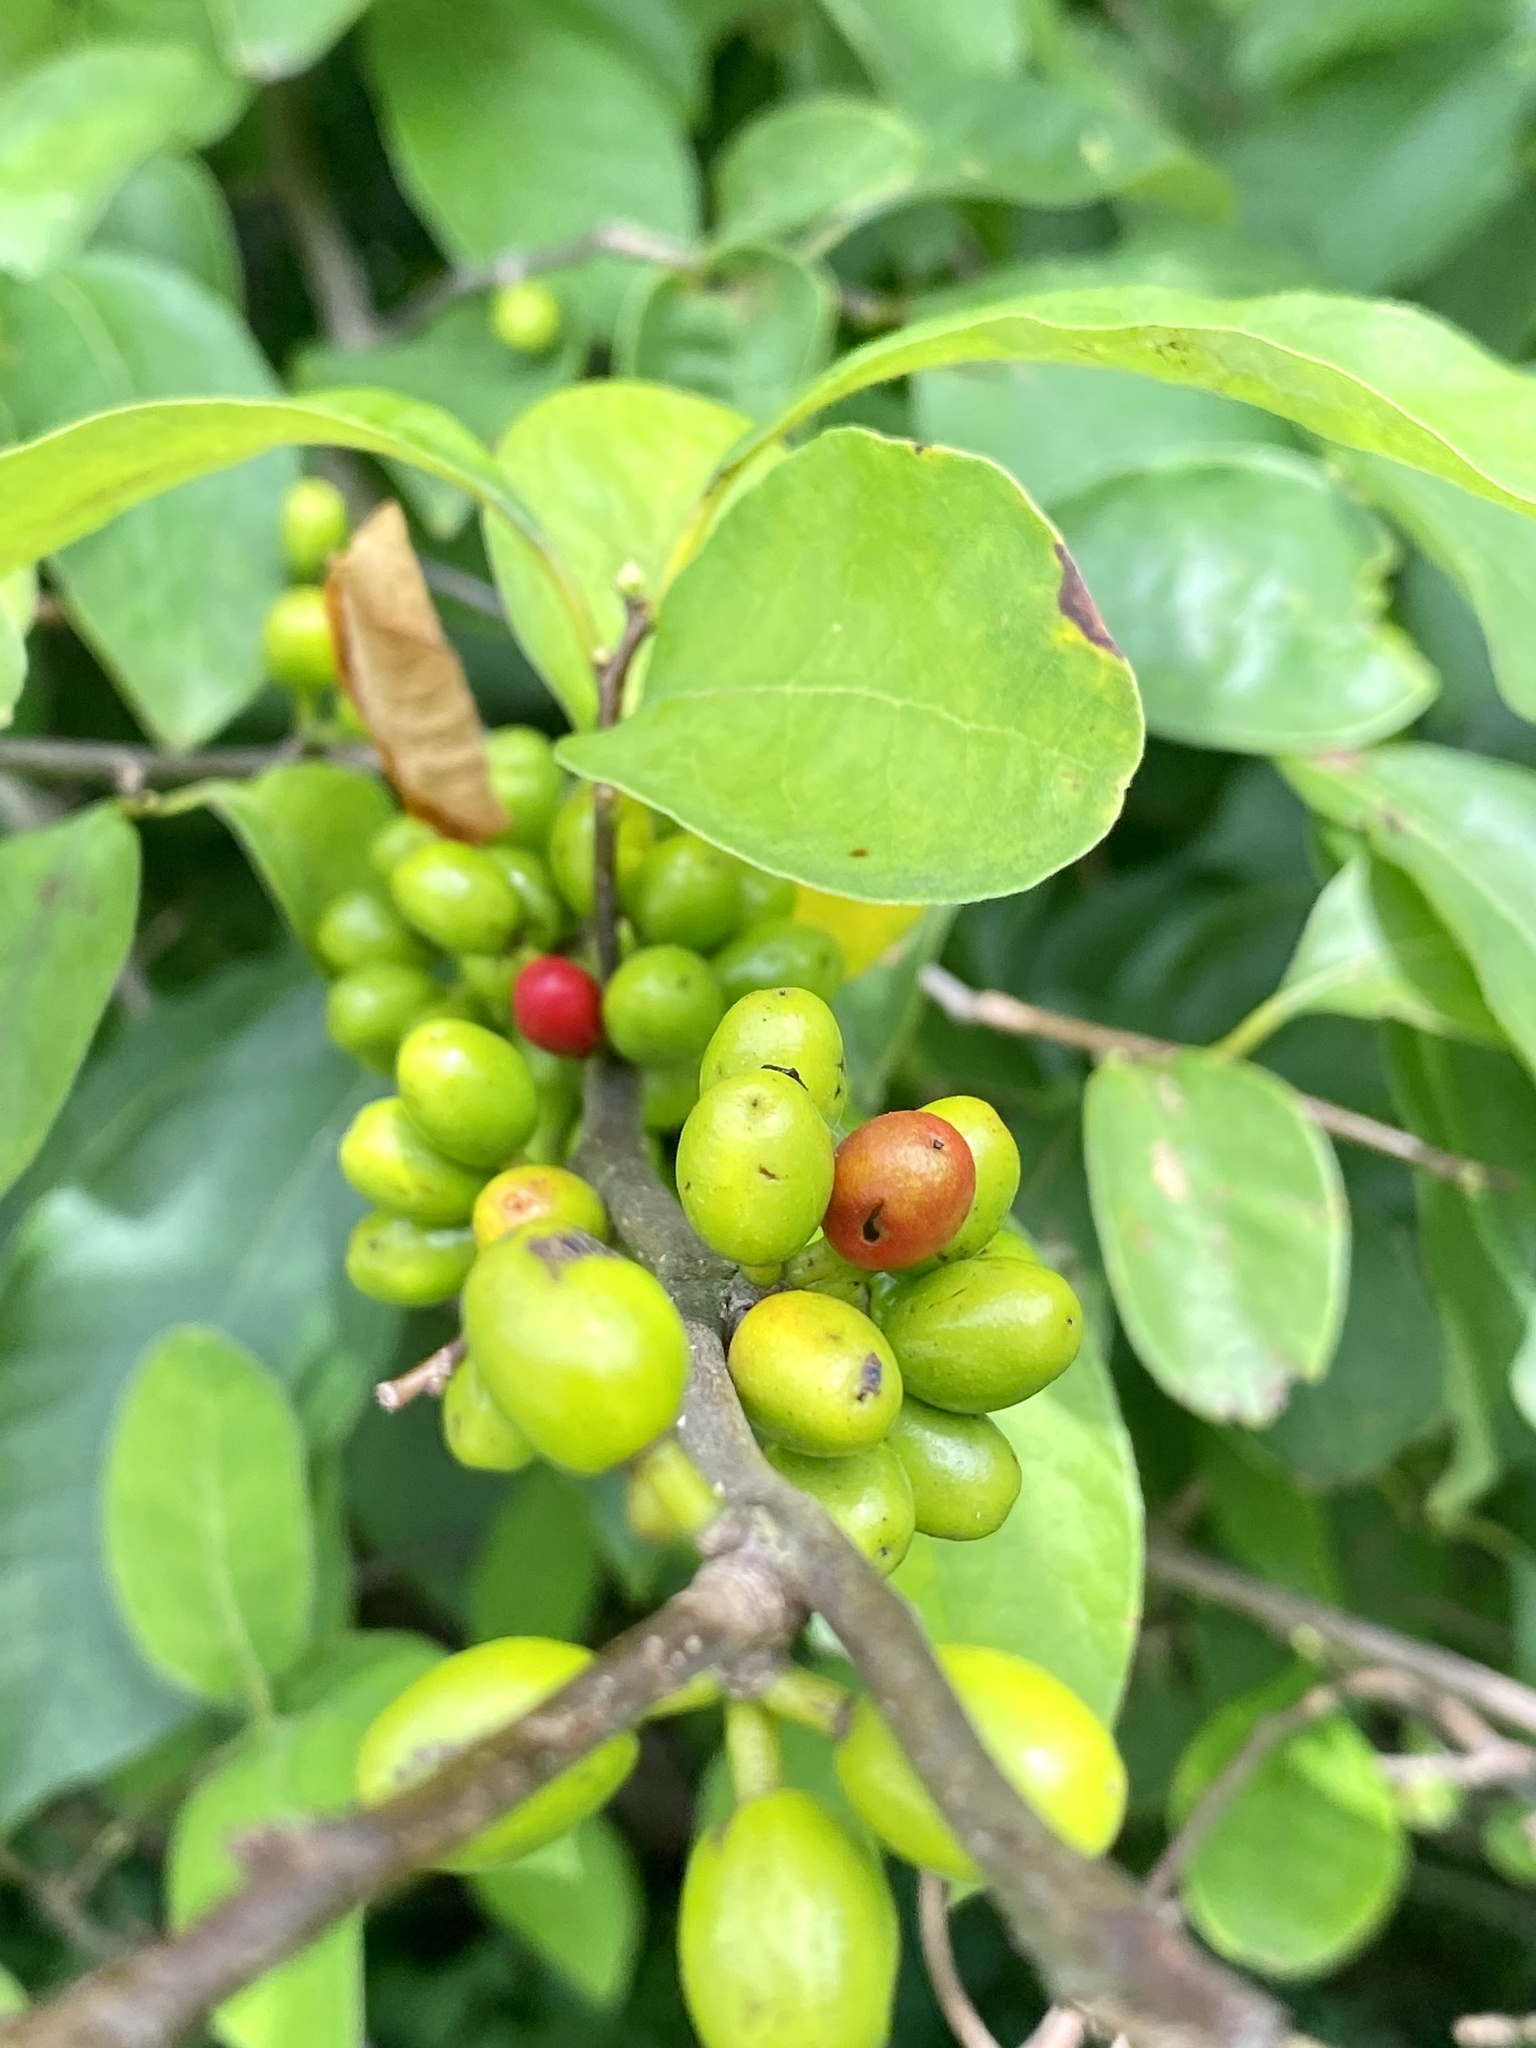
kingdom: Plantae
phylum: Tracheophyta
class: Magnoliopsida
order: Laurales
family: Lauraceae
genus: Lindera
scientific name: Lindera benzoin
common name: Spicebush
